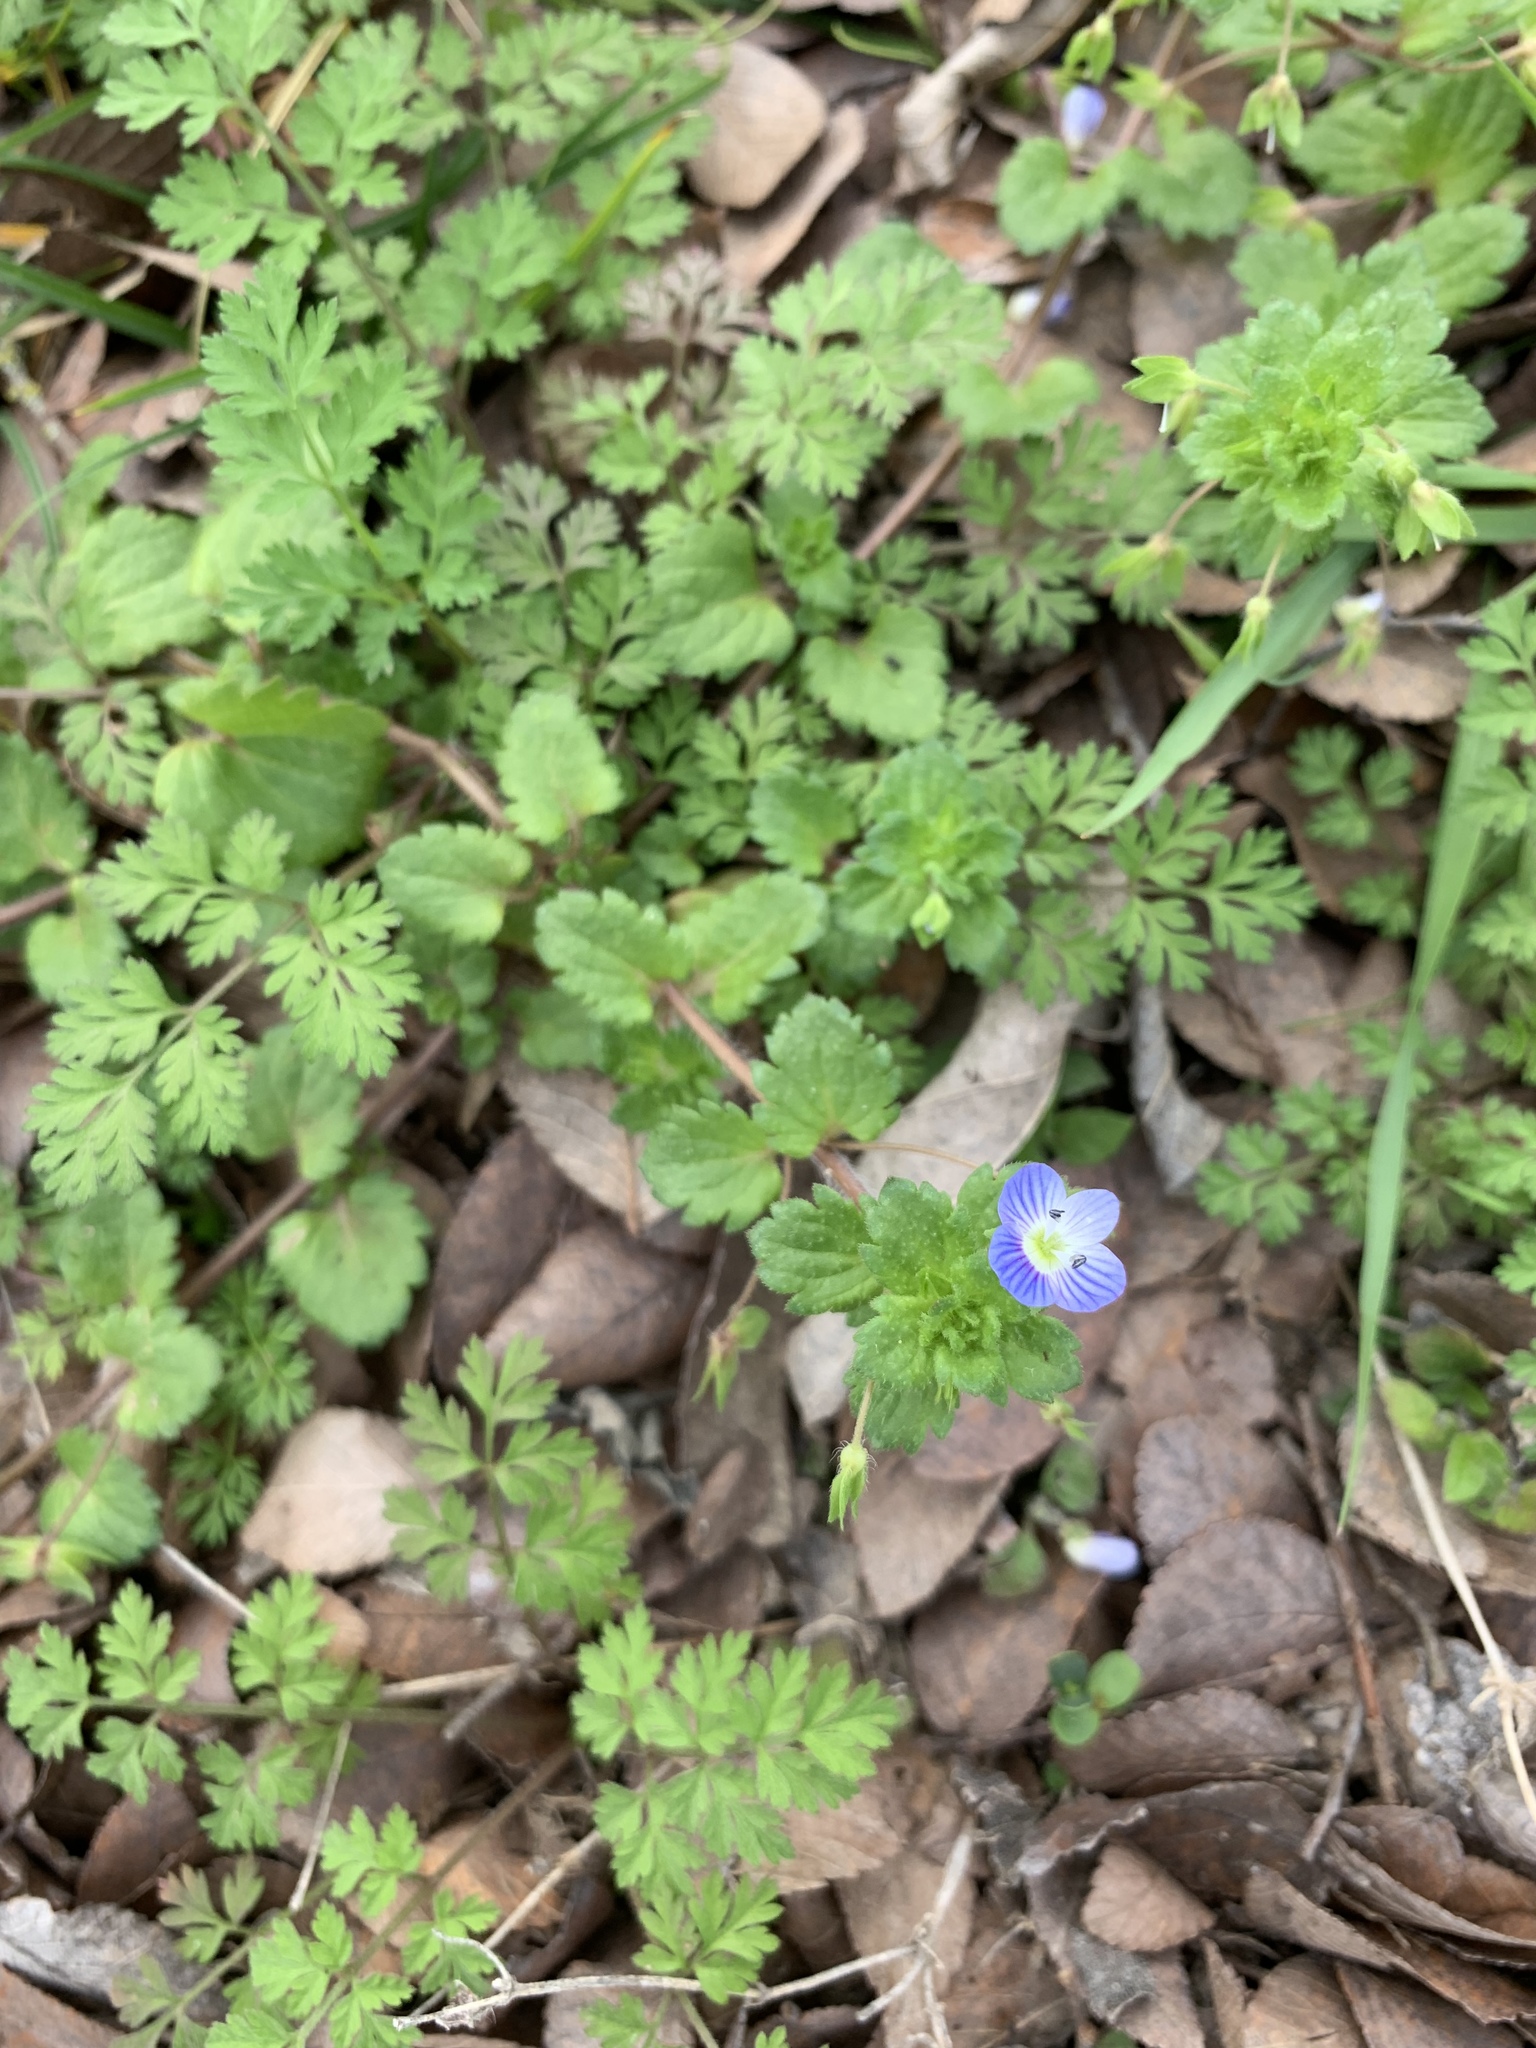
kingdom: Plantae
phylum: Tracheophyta
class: Magnoliopsida
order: Lamiales
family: Plantaginaceae
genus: Veronica
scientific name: Veronica persica
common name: Common field-speedwell
